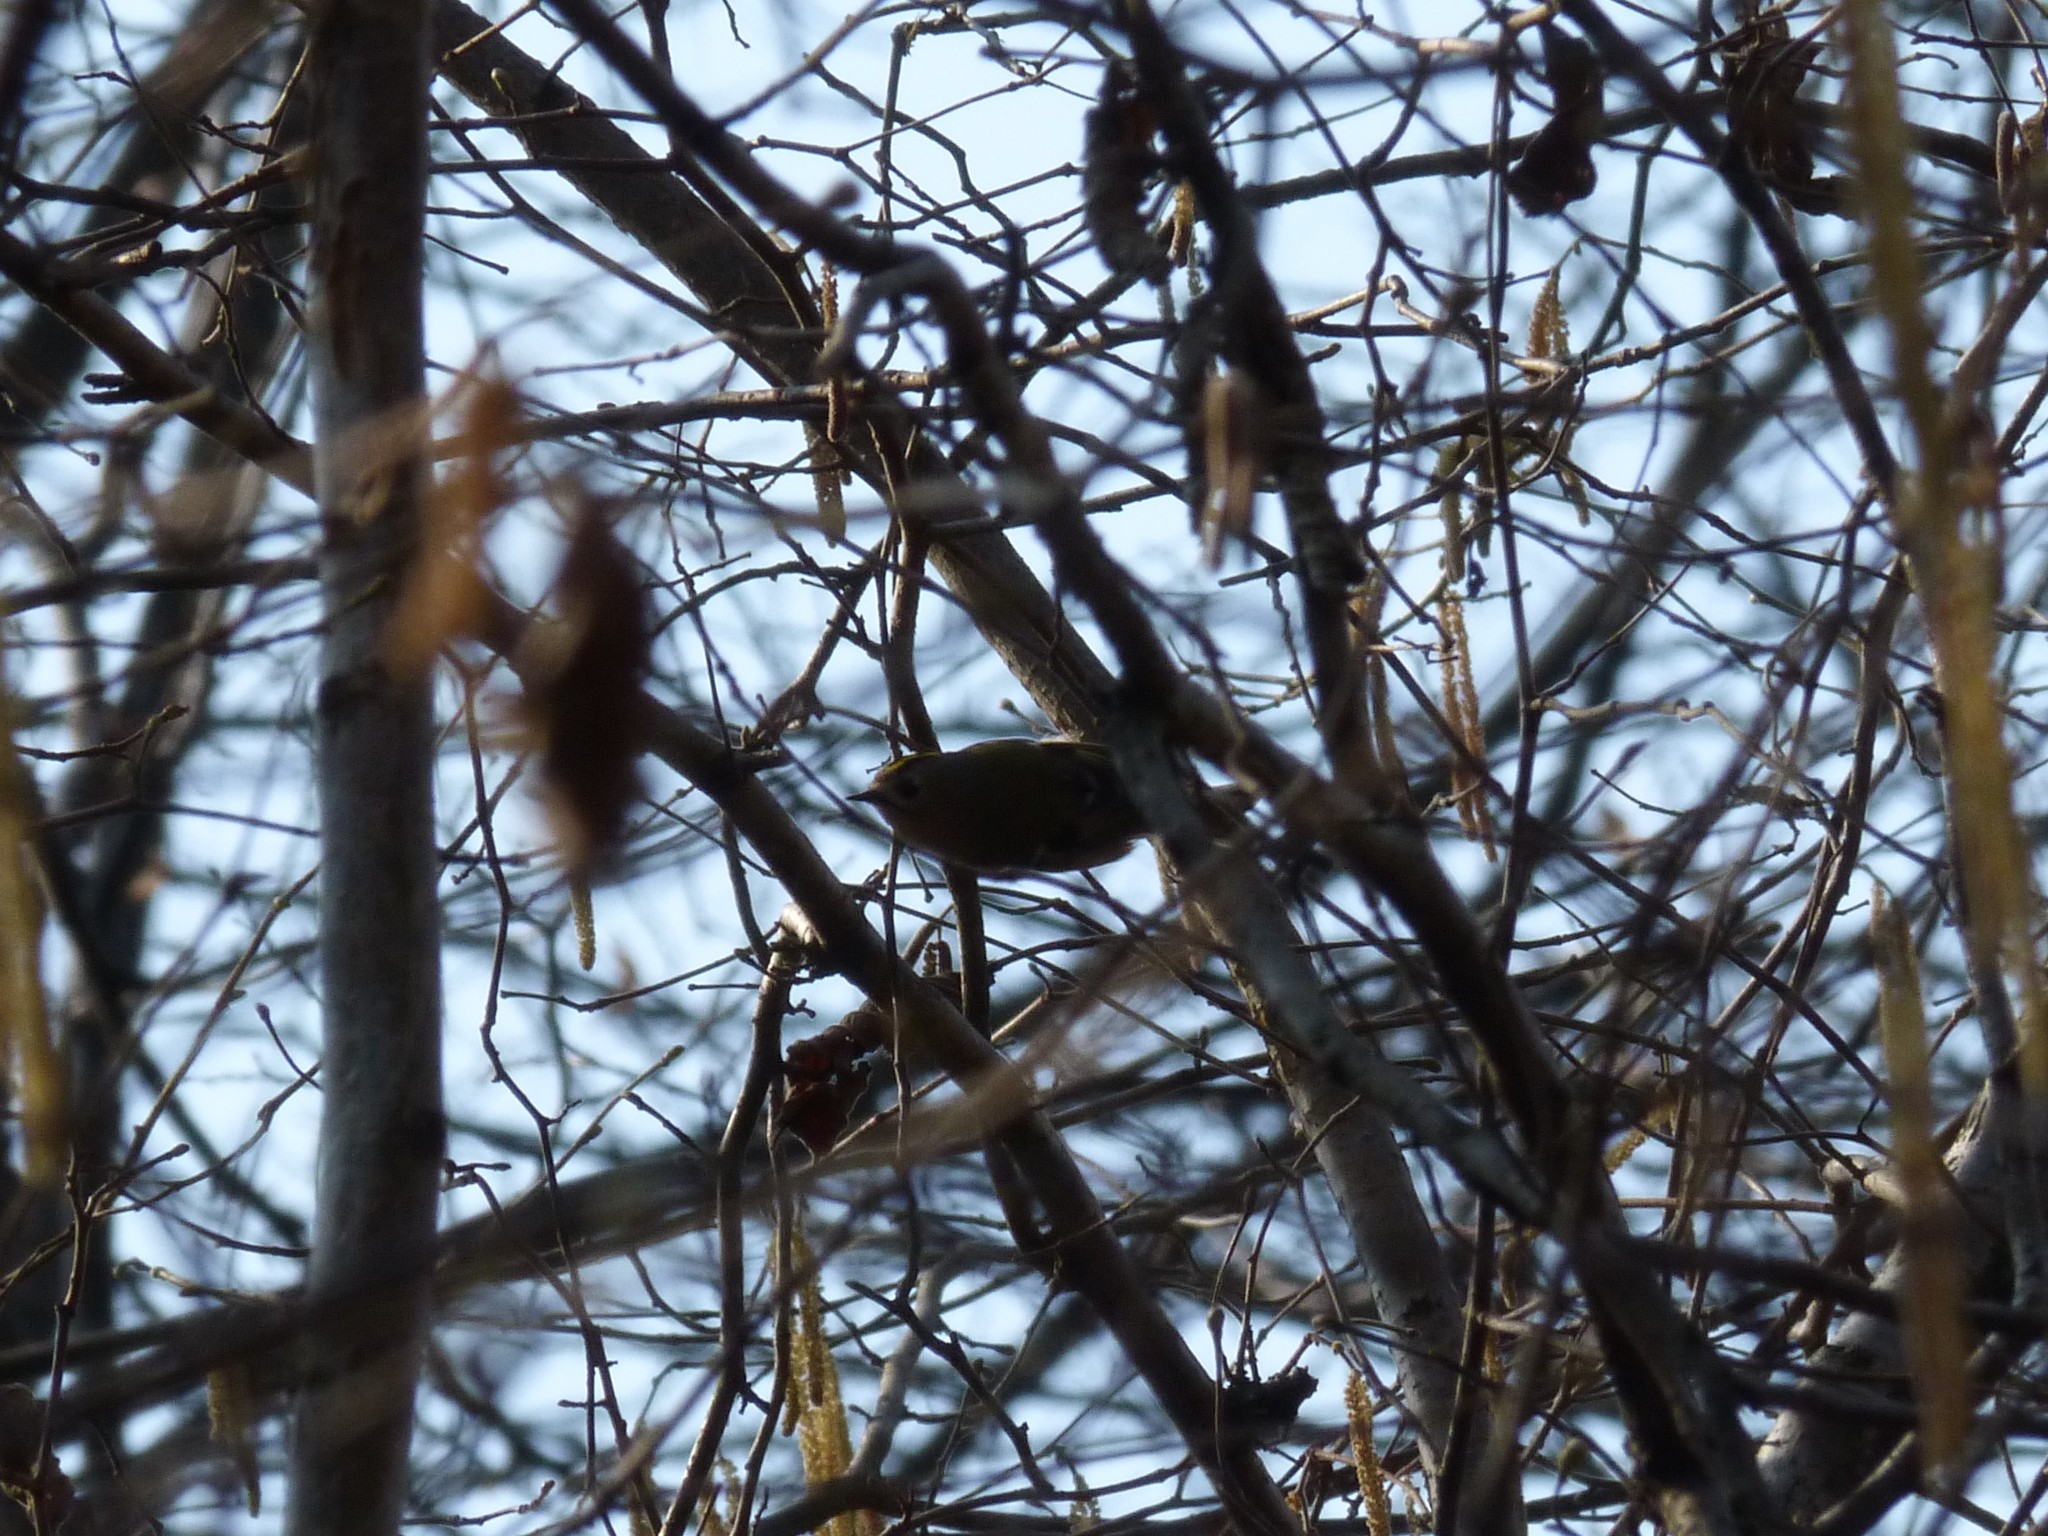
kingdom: Animalia
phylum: Chordata
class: Aves
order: Passeriformes
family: Regulidae
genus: Regulus
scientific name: Regulus regulus
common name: Goldcrest
